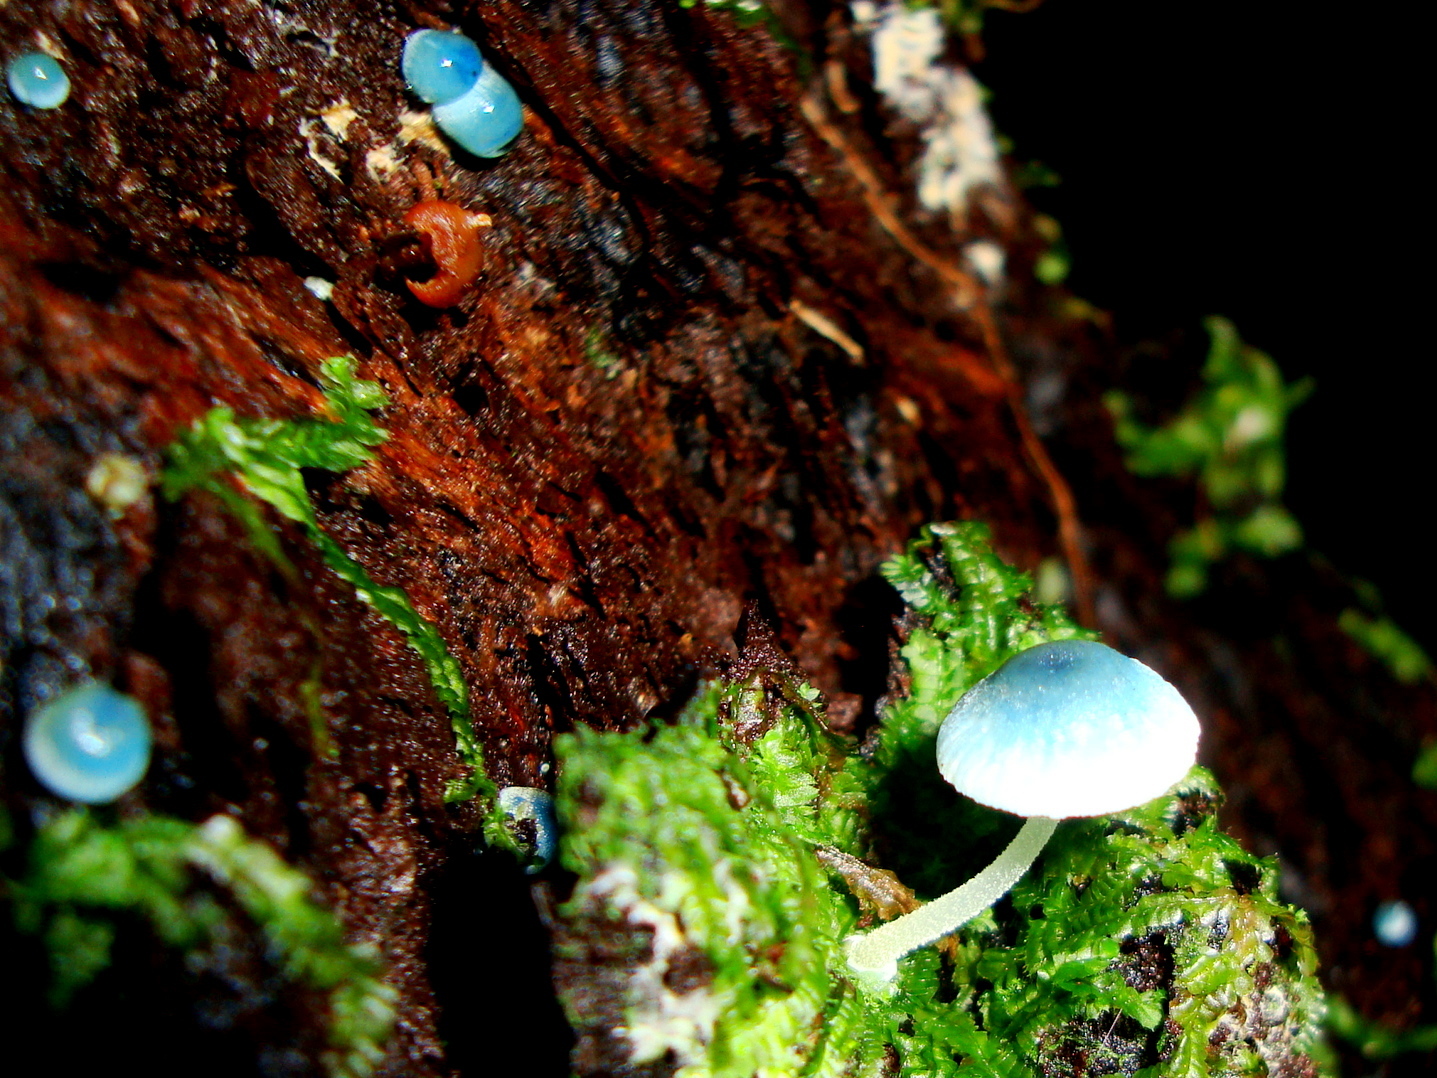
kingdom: Fungi
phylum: Basidiomycota
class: Agaricomycetes
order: Agaricales
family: Mycenaceae
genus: Mycena
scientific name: Mycena cyanocephala
